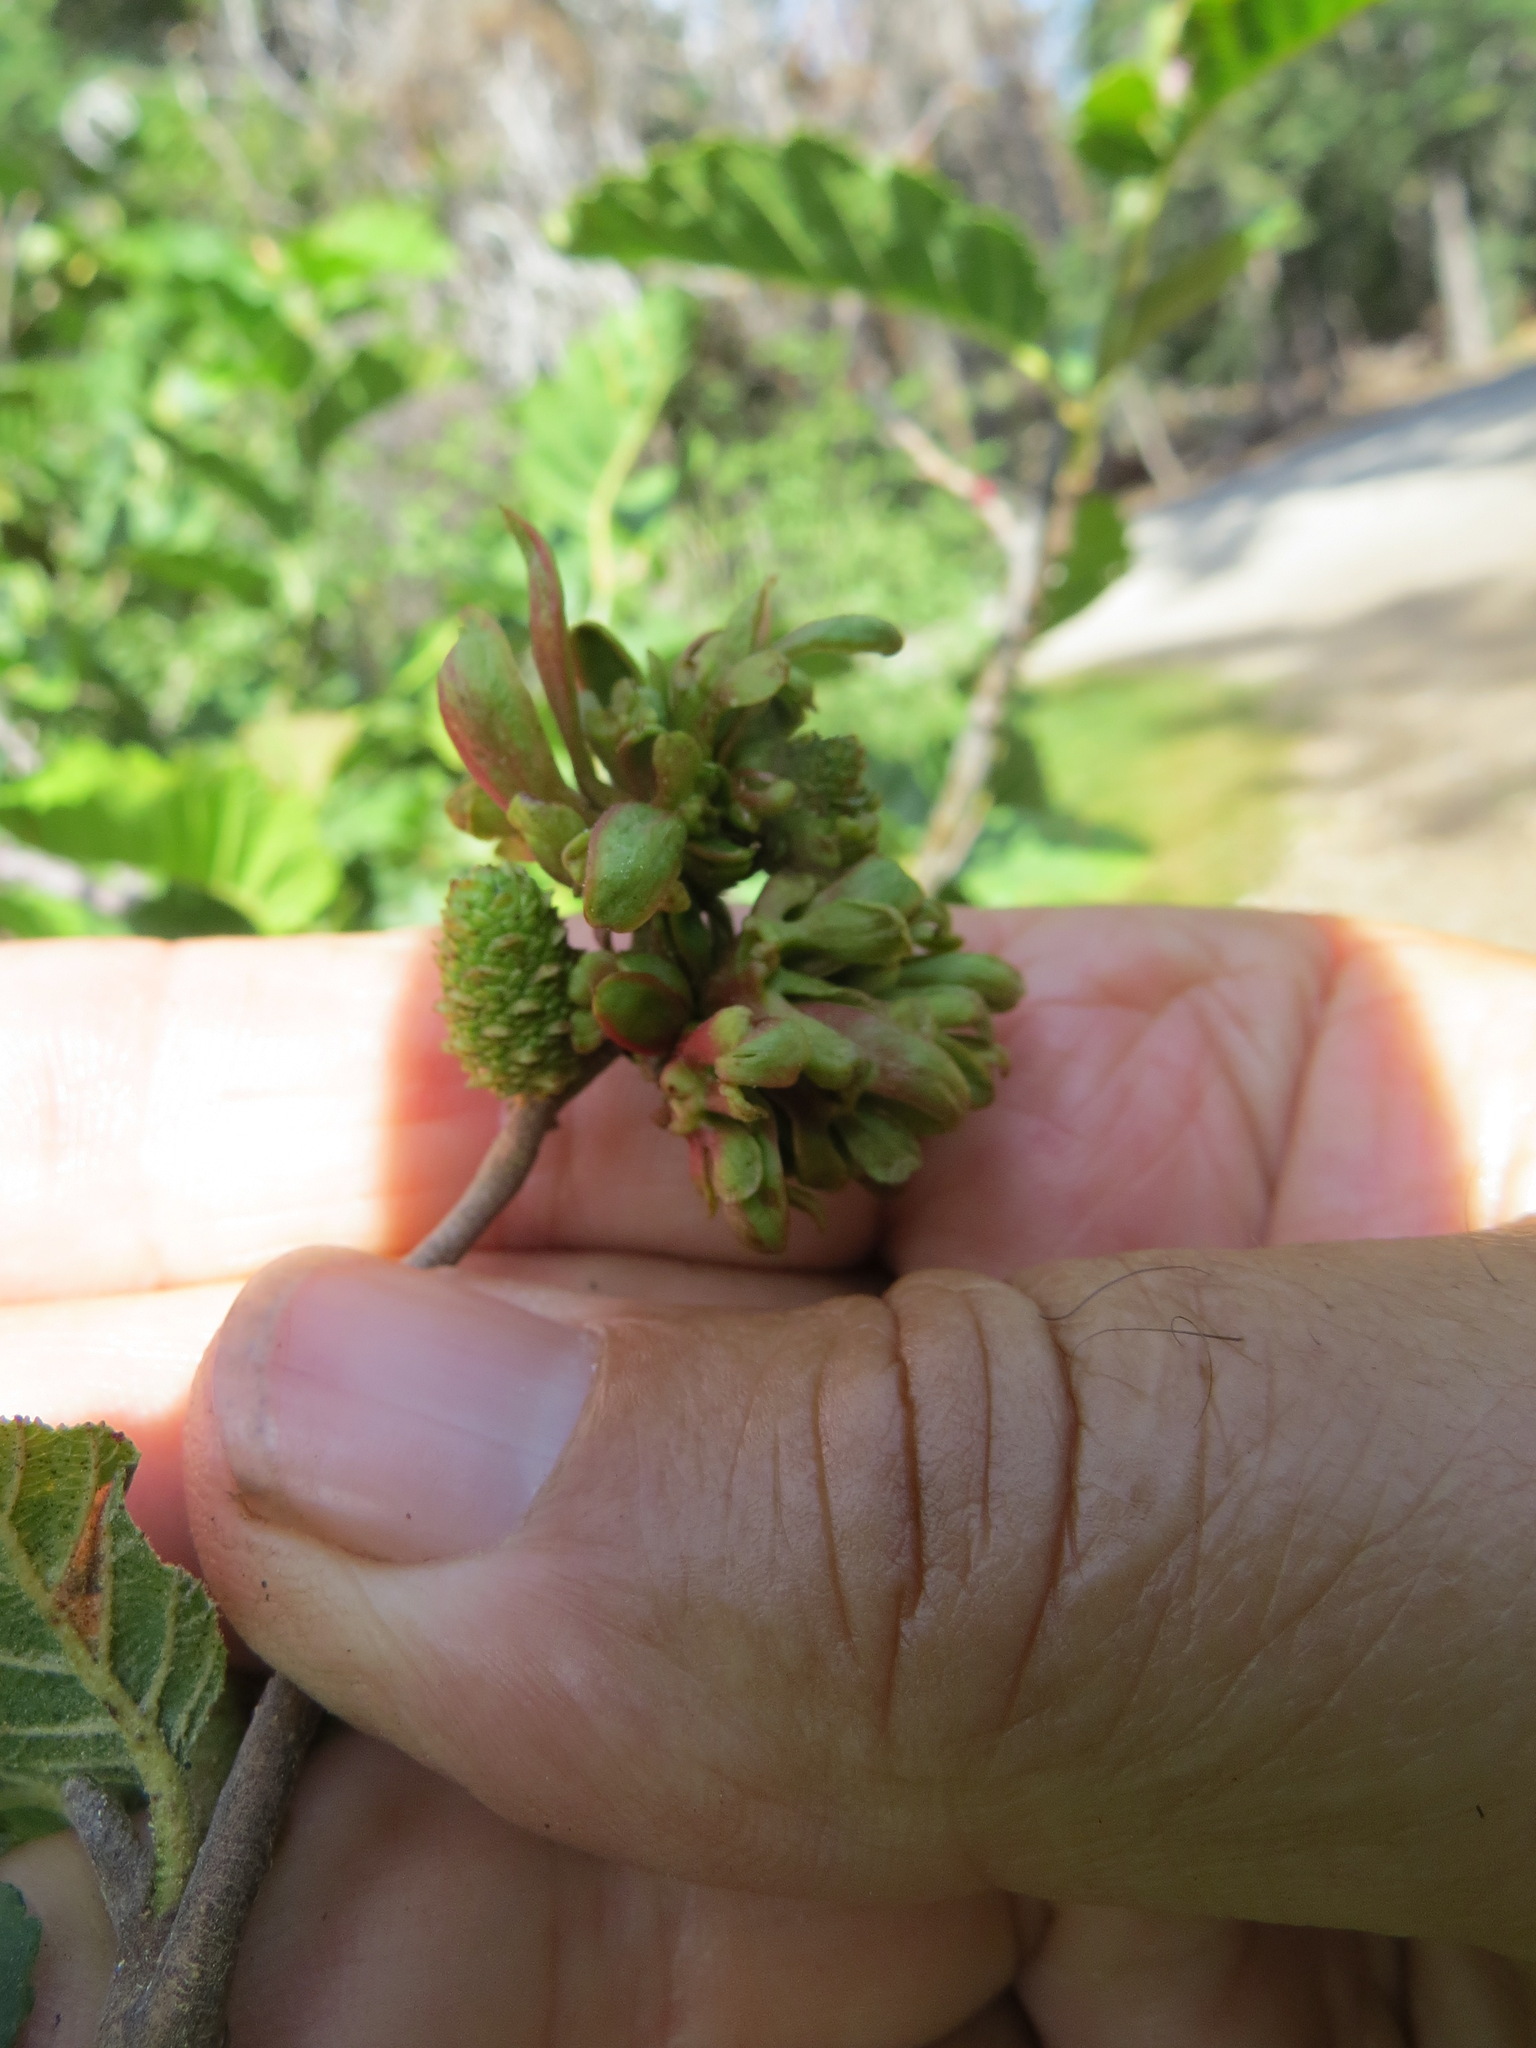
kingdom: Fungi
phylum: Ascomycota
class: Taphrinomycetes
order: Taphrinales
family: Taphrinaceae
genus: Taphrina
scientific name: Taphrina occidentalis
